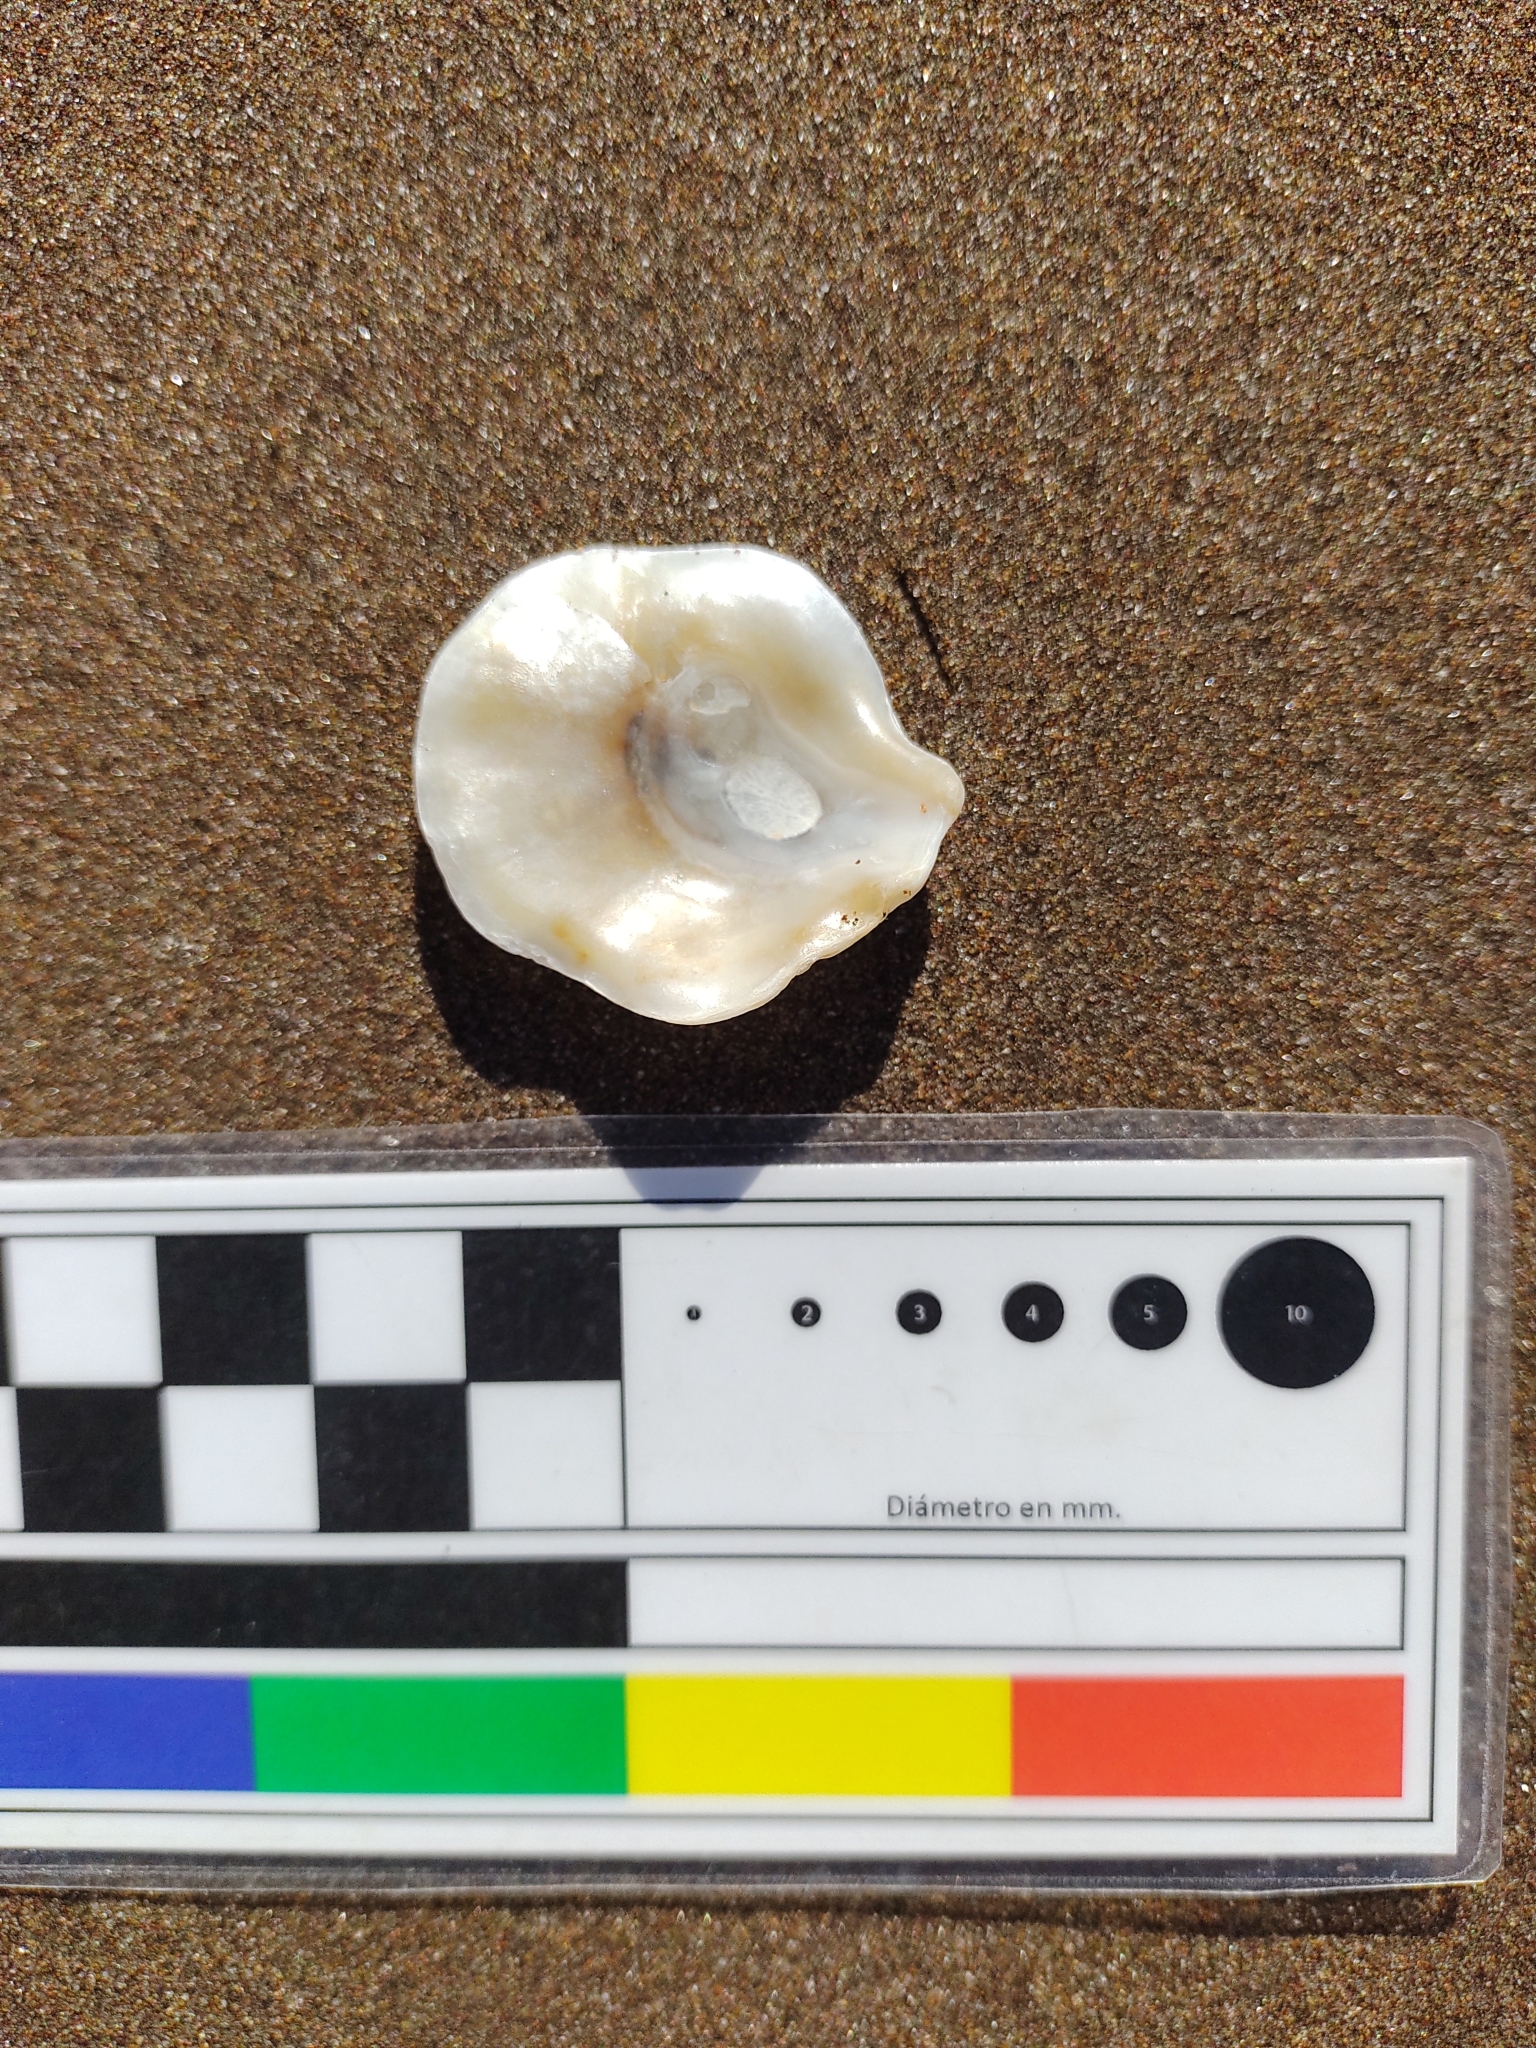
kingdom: Animalia
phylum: Mollusca
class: Bivalvia
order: Pectinida
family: Anomiidae
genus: Pododesmus
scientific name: Pododesmus rudis
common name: Atlantic false jingle
